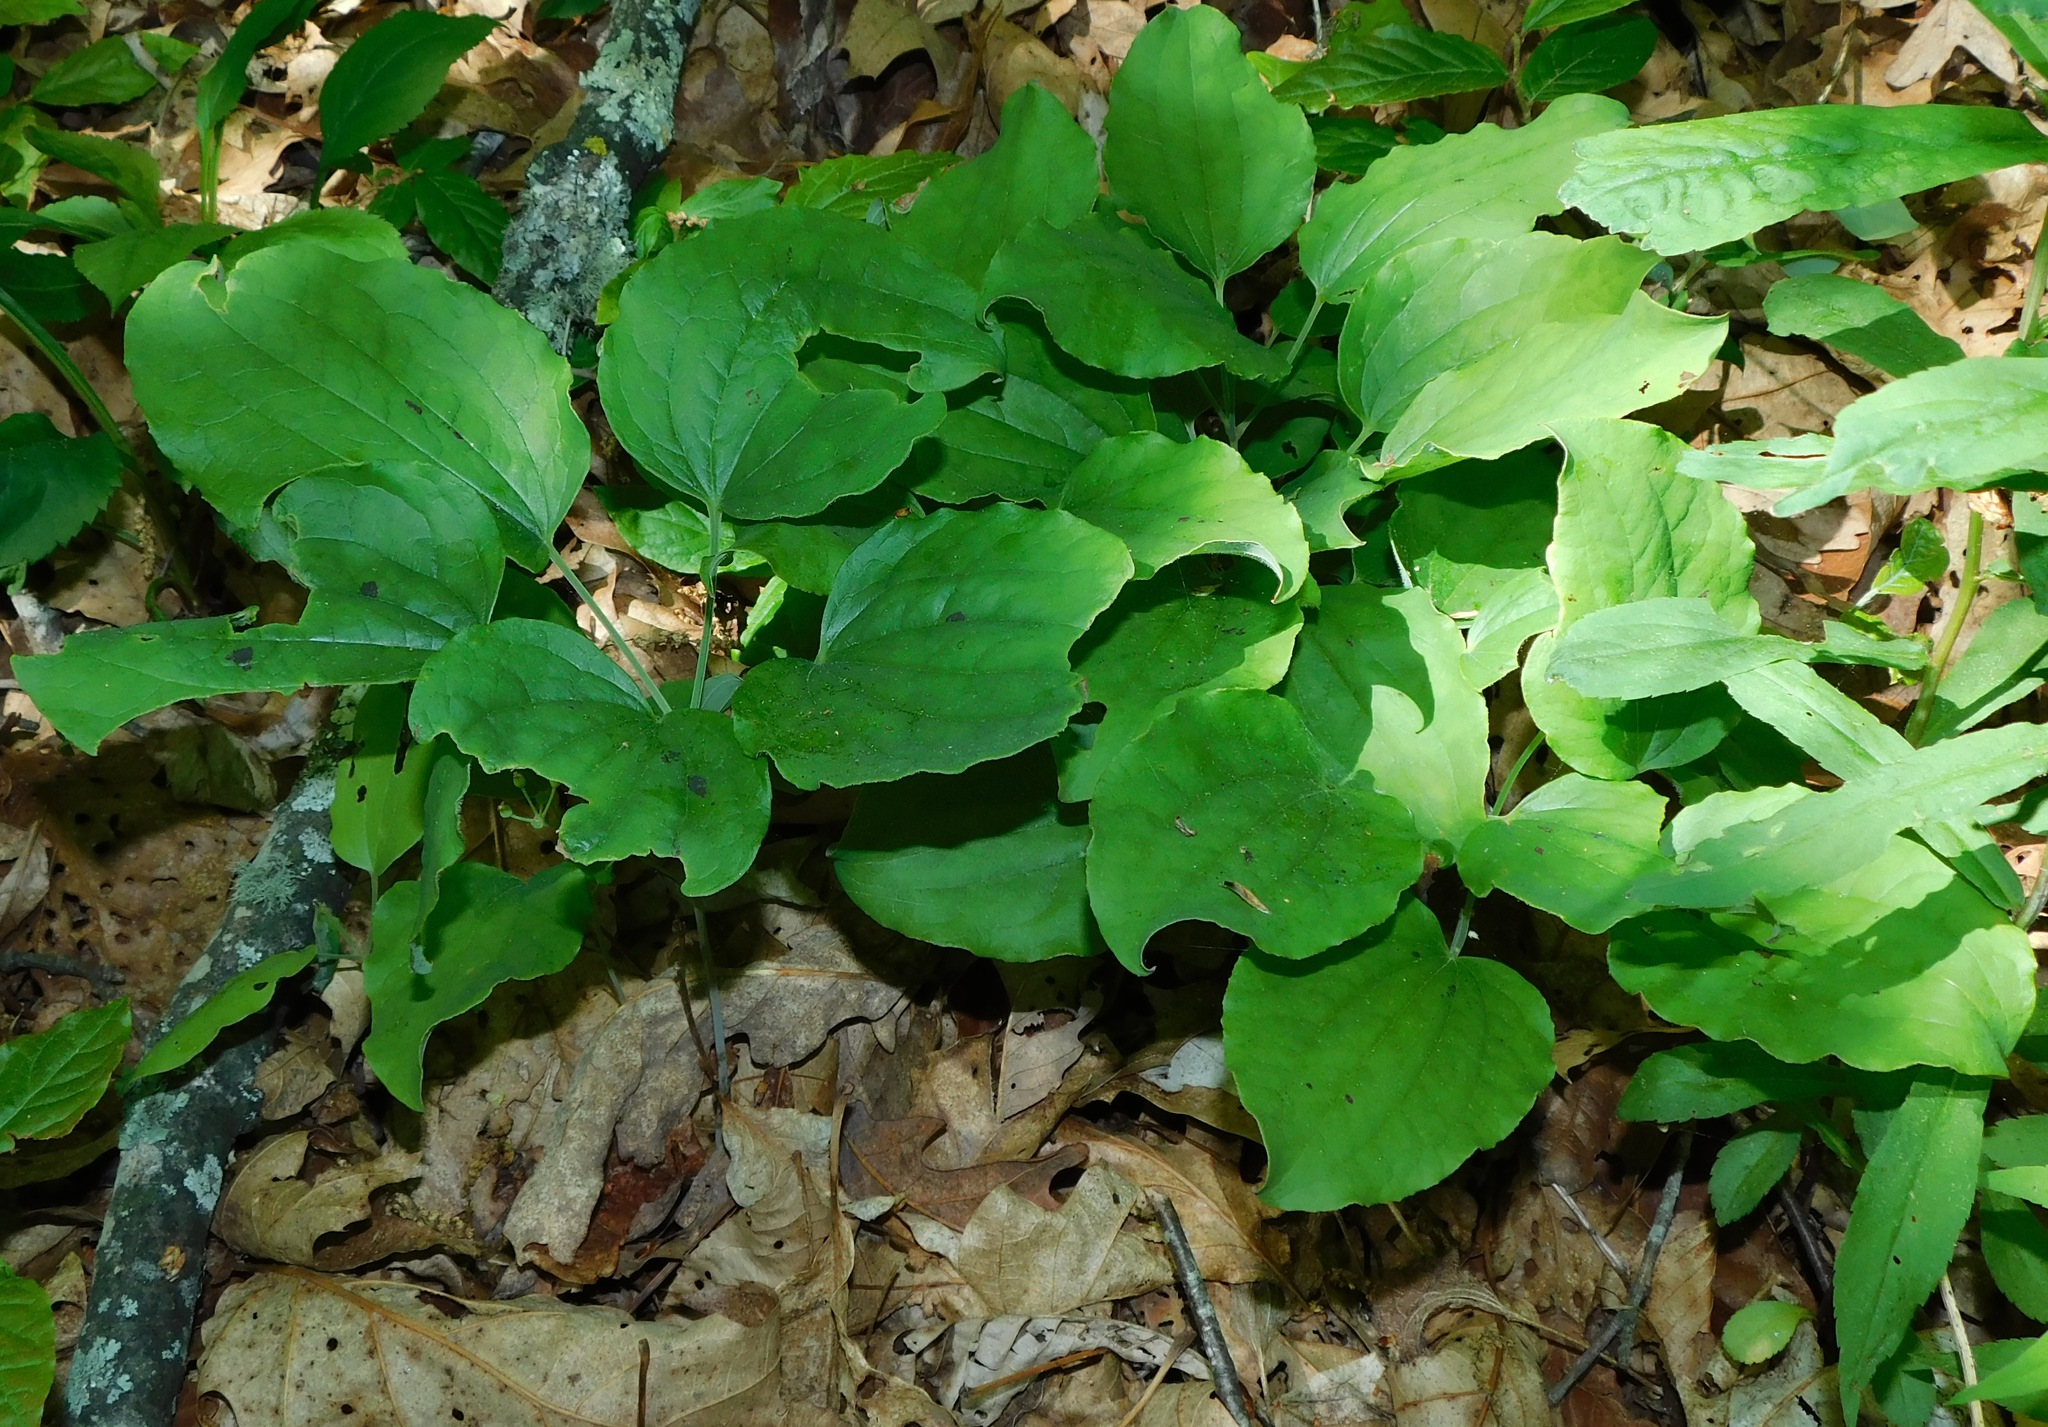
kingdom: Plantae
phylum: Tracheophyta
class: Liliopsida
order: Liliales
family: Smilacaceae
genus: Smilax
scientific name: Smilax hugeri
